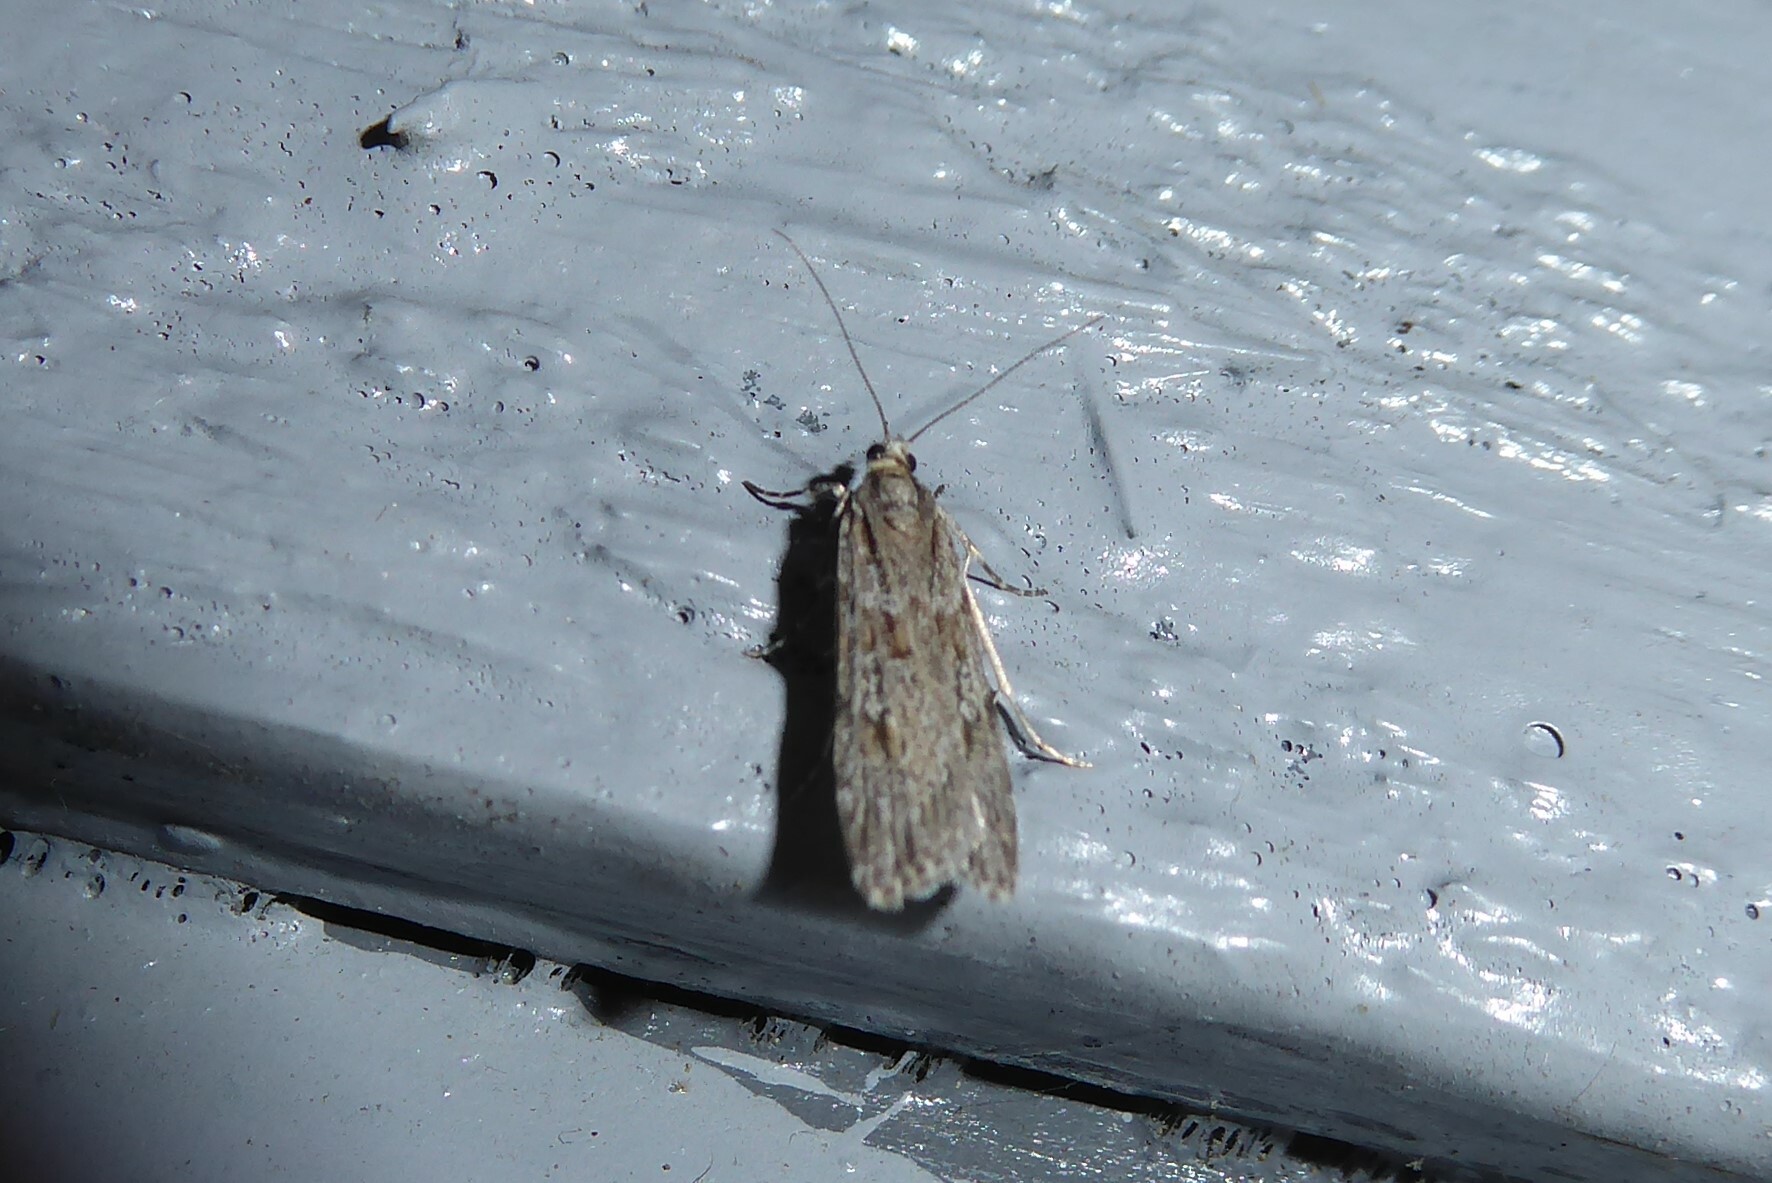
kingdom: Animalia
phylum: Arthropoda
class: Insecta
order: Lepidoptera
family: Crambidae
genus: Scoparia
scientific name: Scoparia chalicodes
